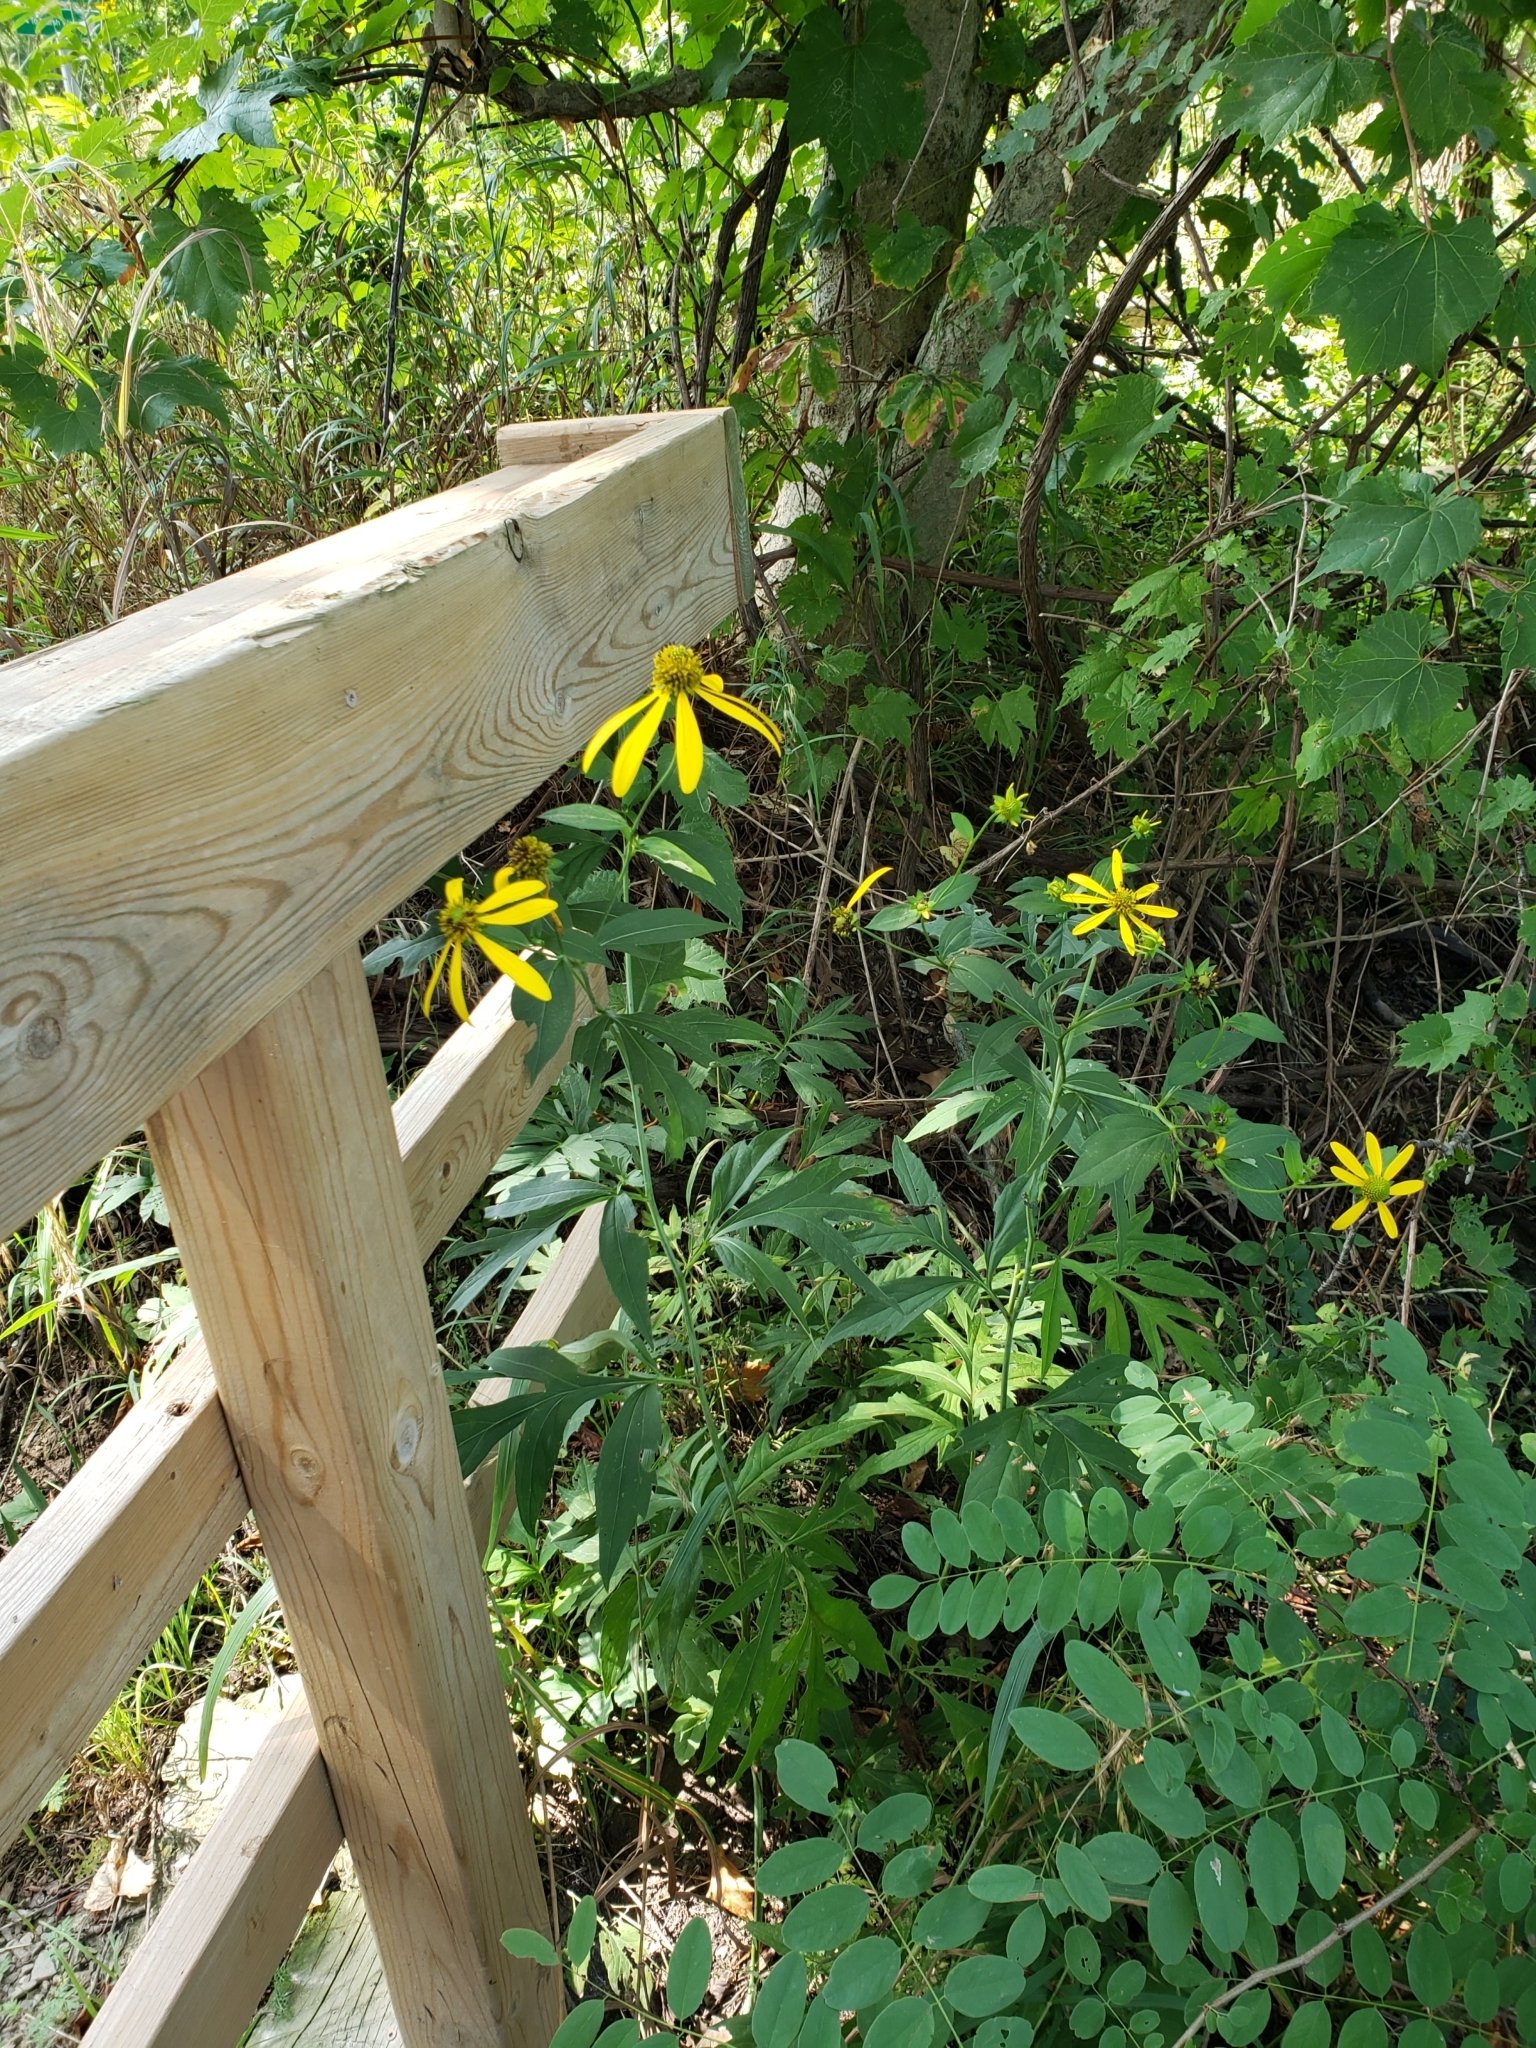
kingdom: Plantae
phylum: Tracheophyta
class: Magnoliopsida
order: Asterales
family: Asteraceae
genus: Rudbeckia
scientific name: Rudbeckia laciniata
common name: Coneflower
